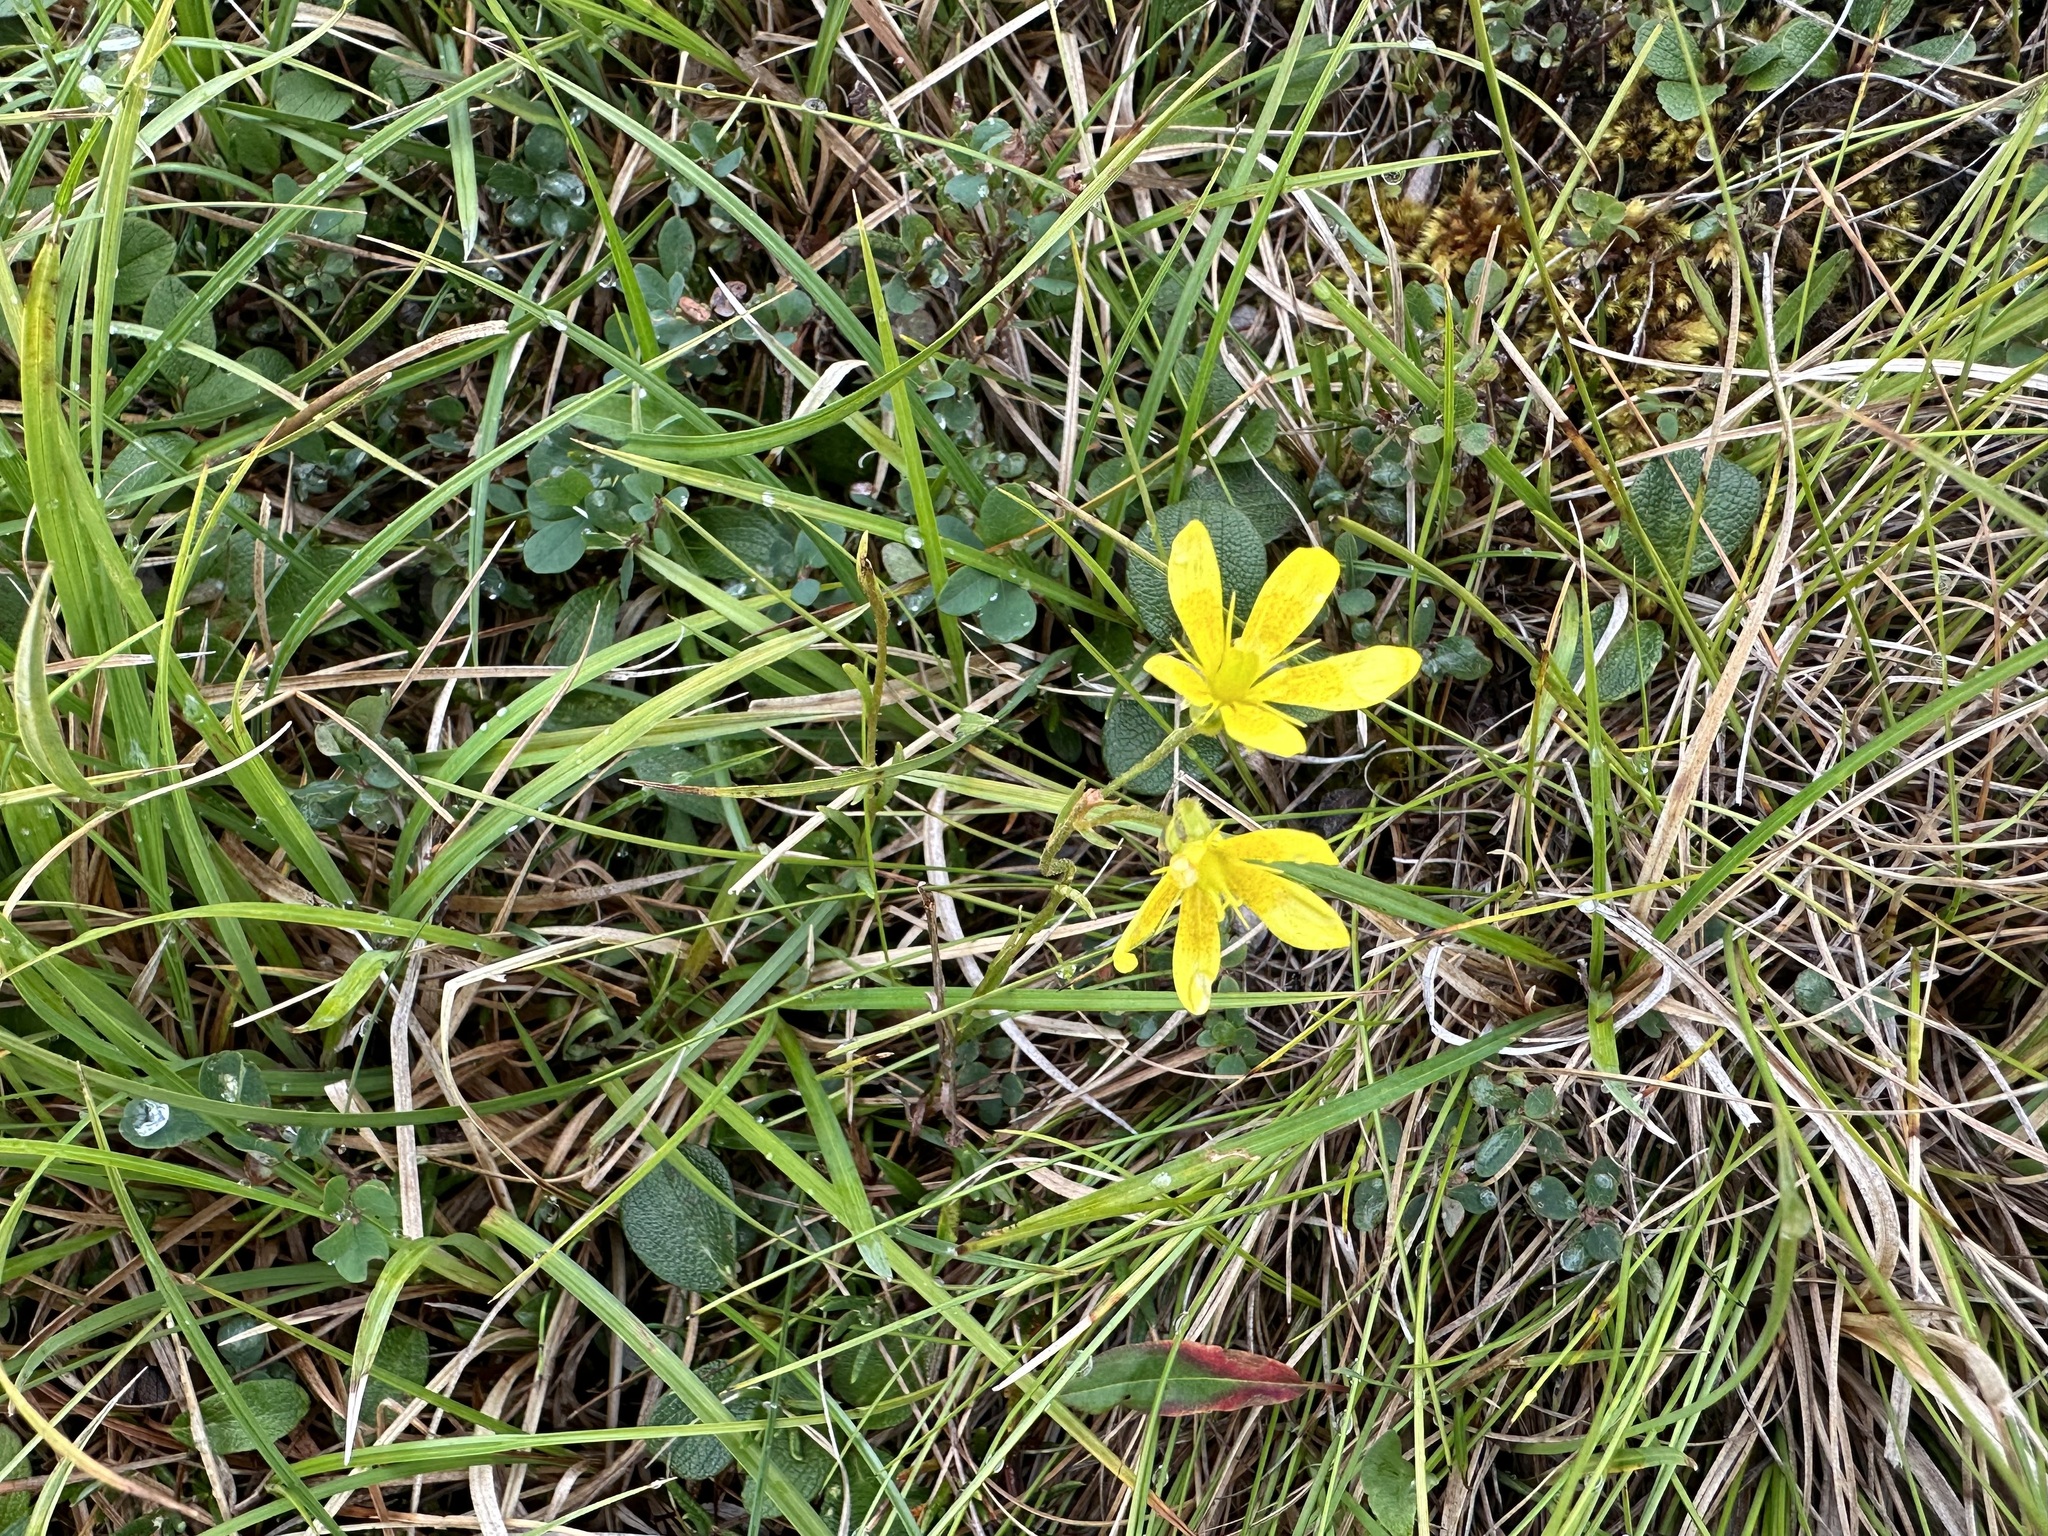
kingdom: Plantae
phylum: Tracheophyta
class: Magnoliopsida
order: Saxifragales
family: Saxifragaceae
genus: Saxifraga
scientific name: Saxifraga hirculus
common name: Yellow marsh saxifrage
